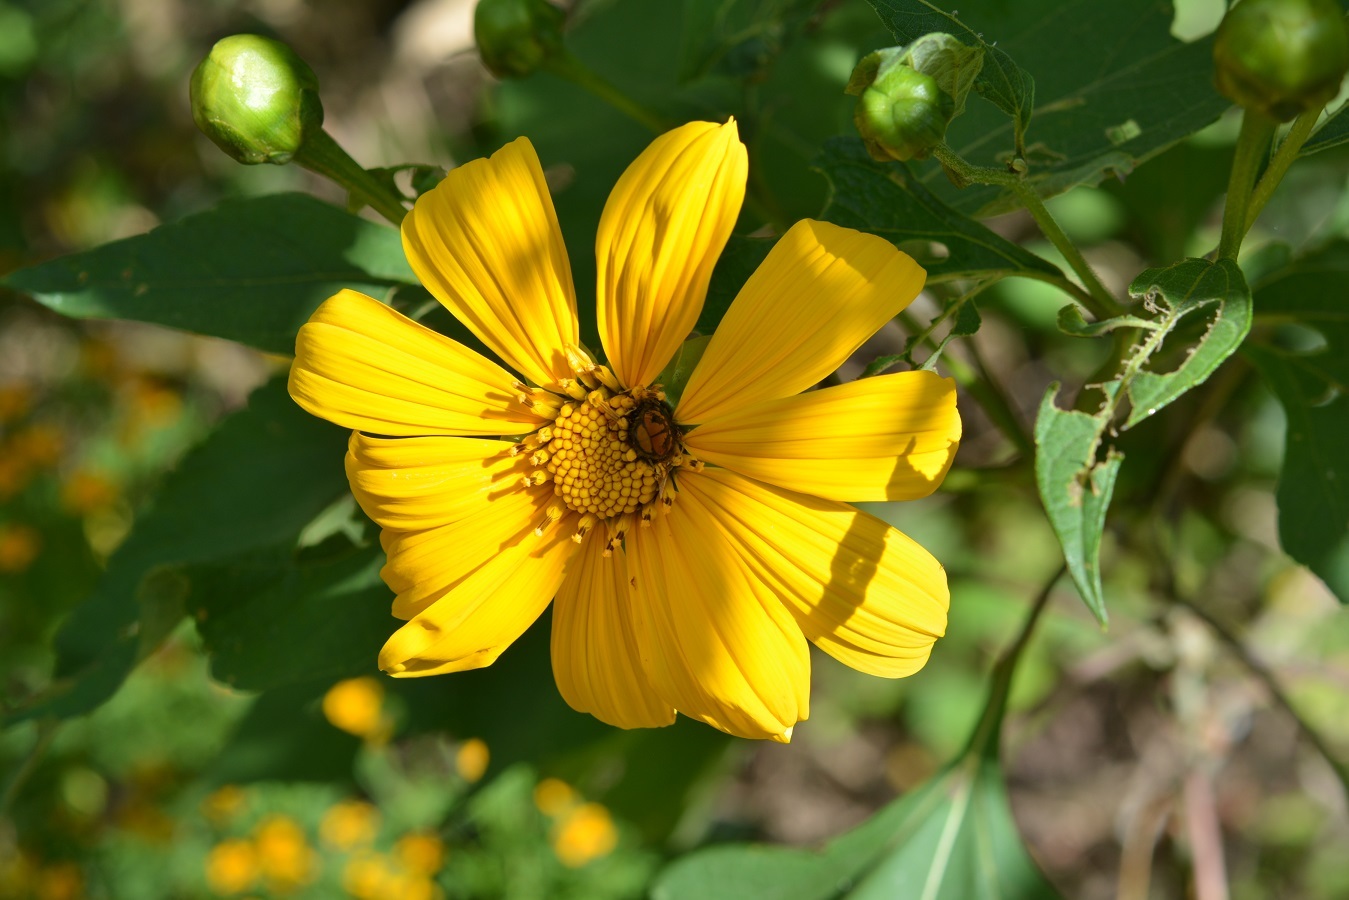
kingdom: Plantae
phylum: Tracheophyta
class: Magnoliopsida
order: Asterales
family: Asteraceae
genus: Tithonia
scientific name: Tithonia tubaeformis
